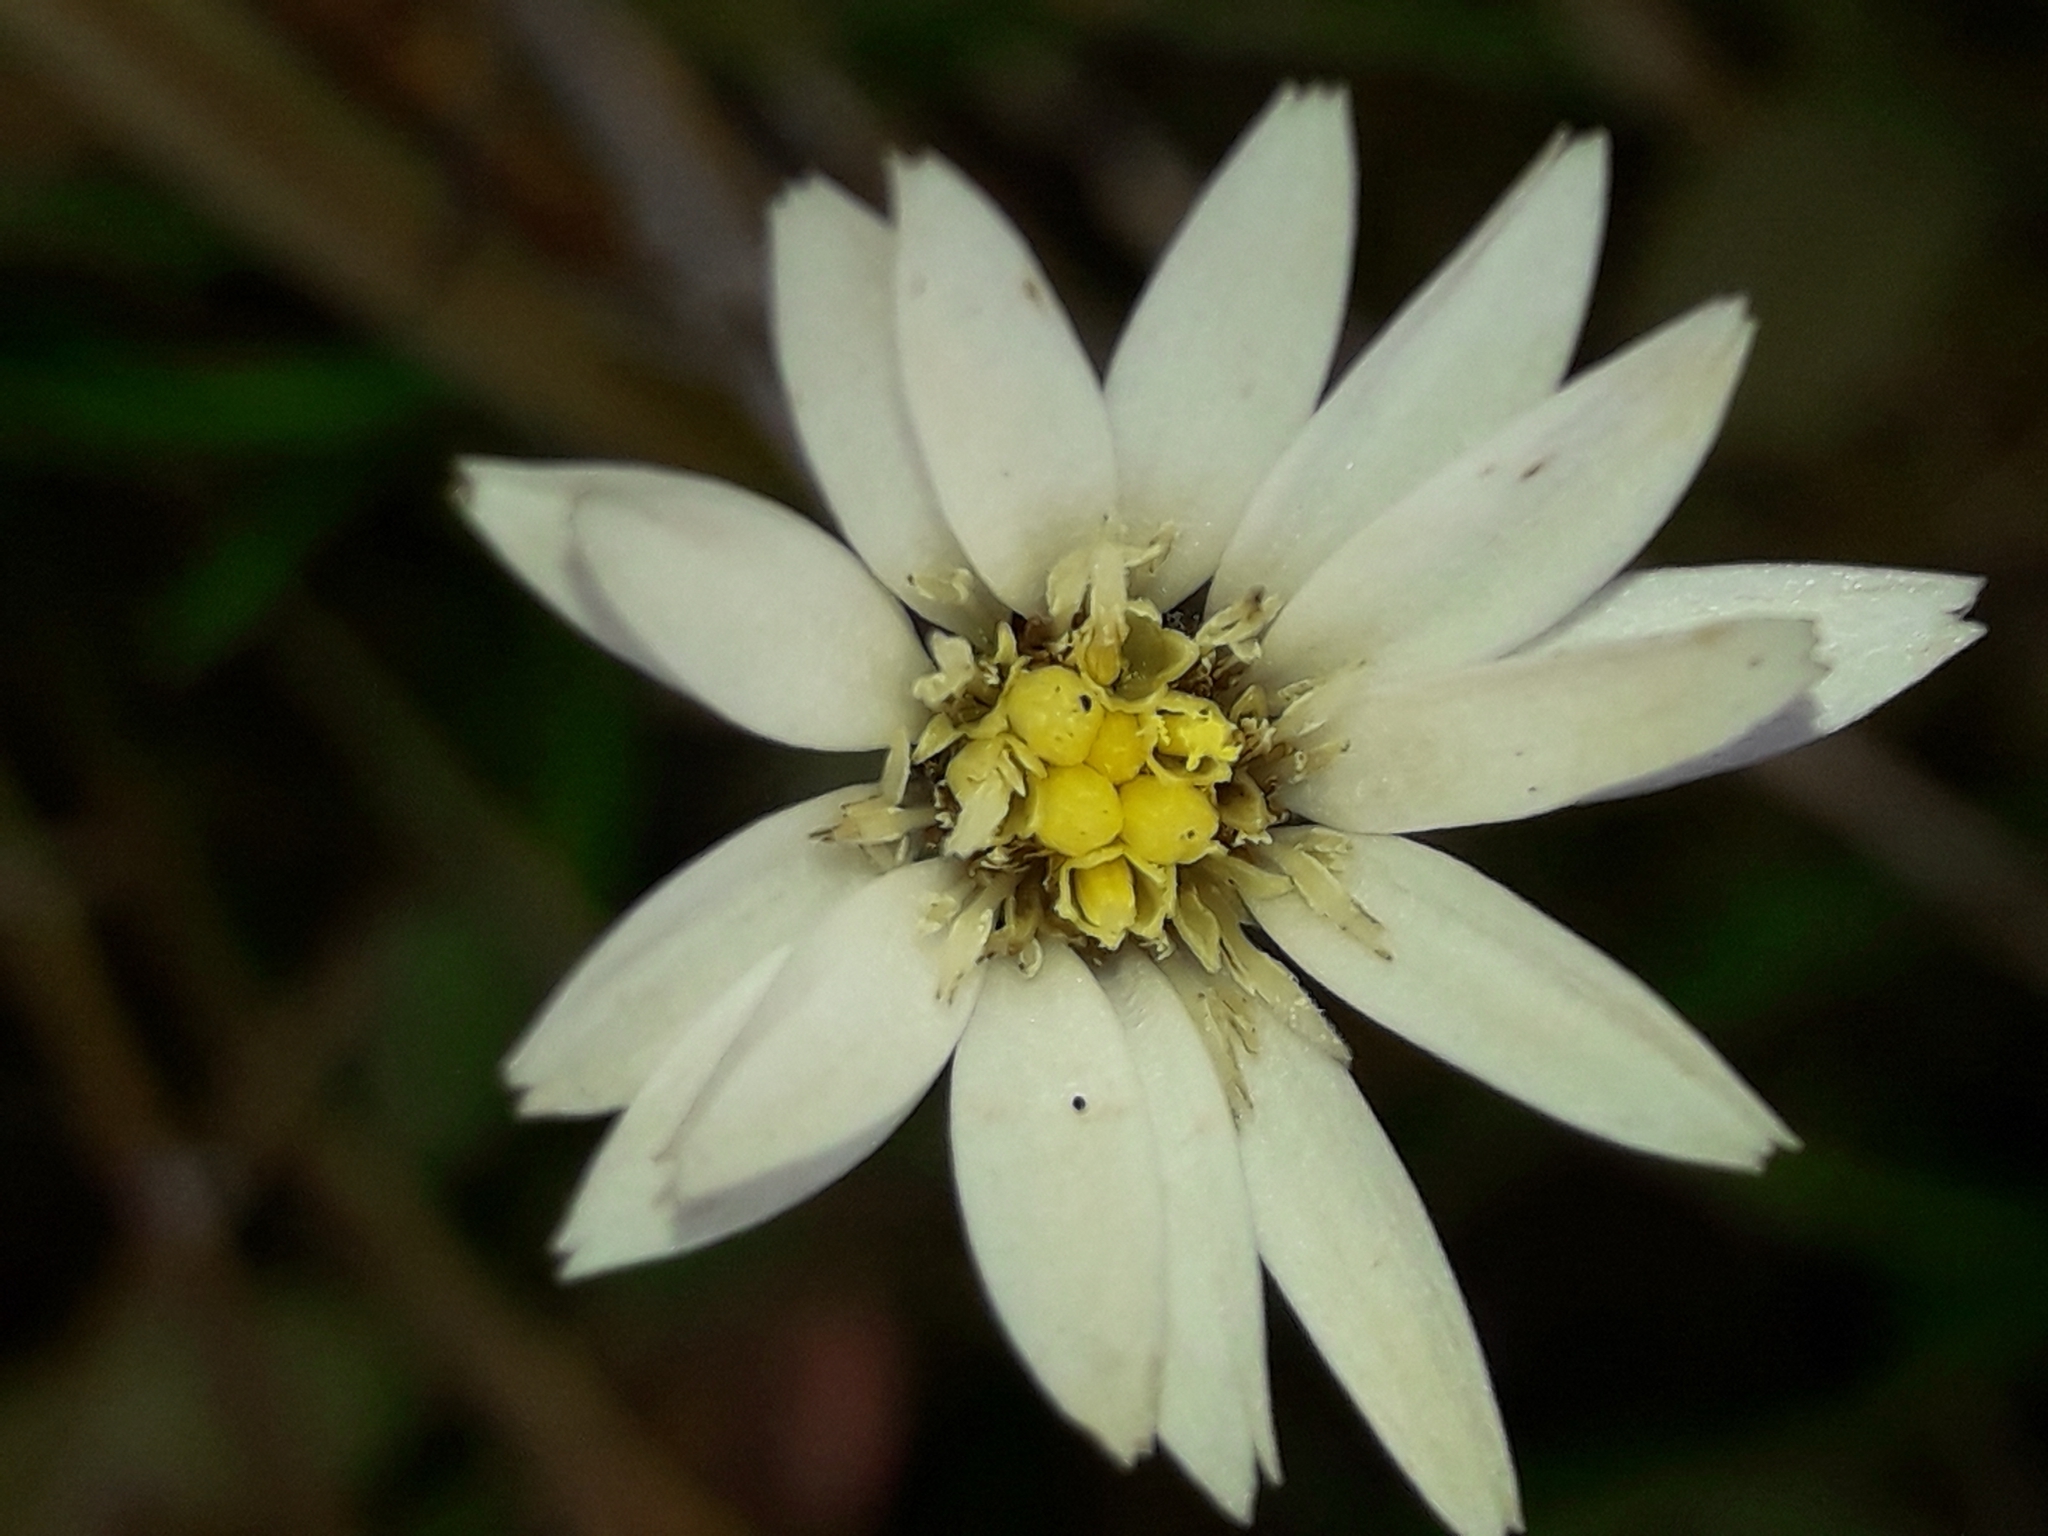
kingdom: Plantae
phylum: Tracheophyta
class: Magnoliopsida
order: Asterales
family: Asteraceae
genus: Celmisia
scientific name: Celmisia gracilenta
